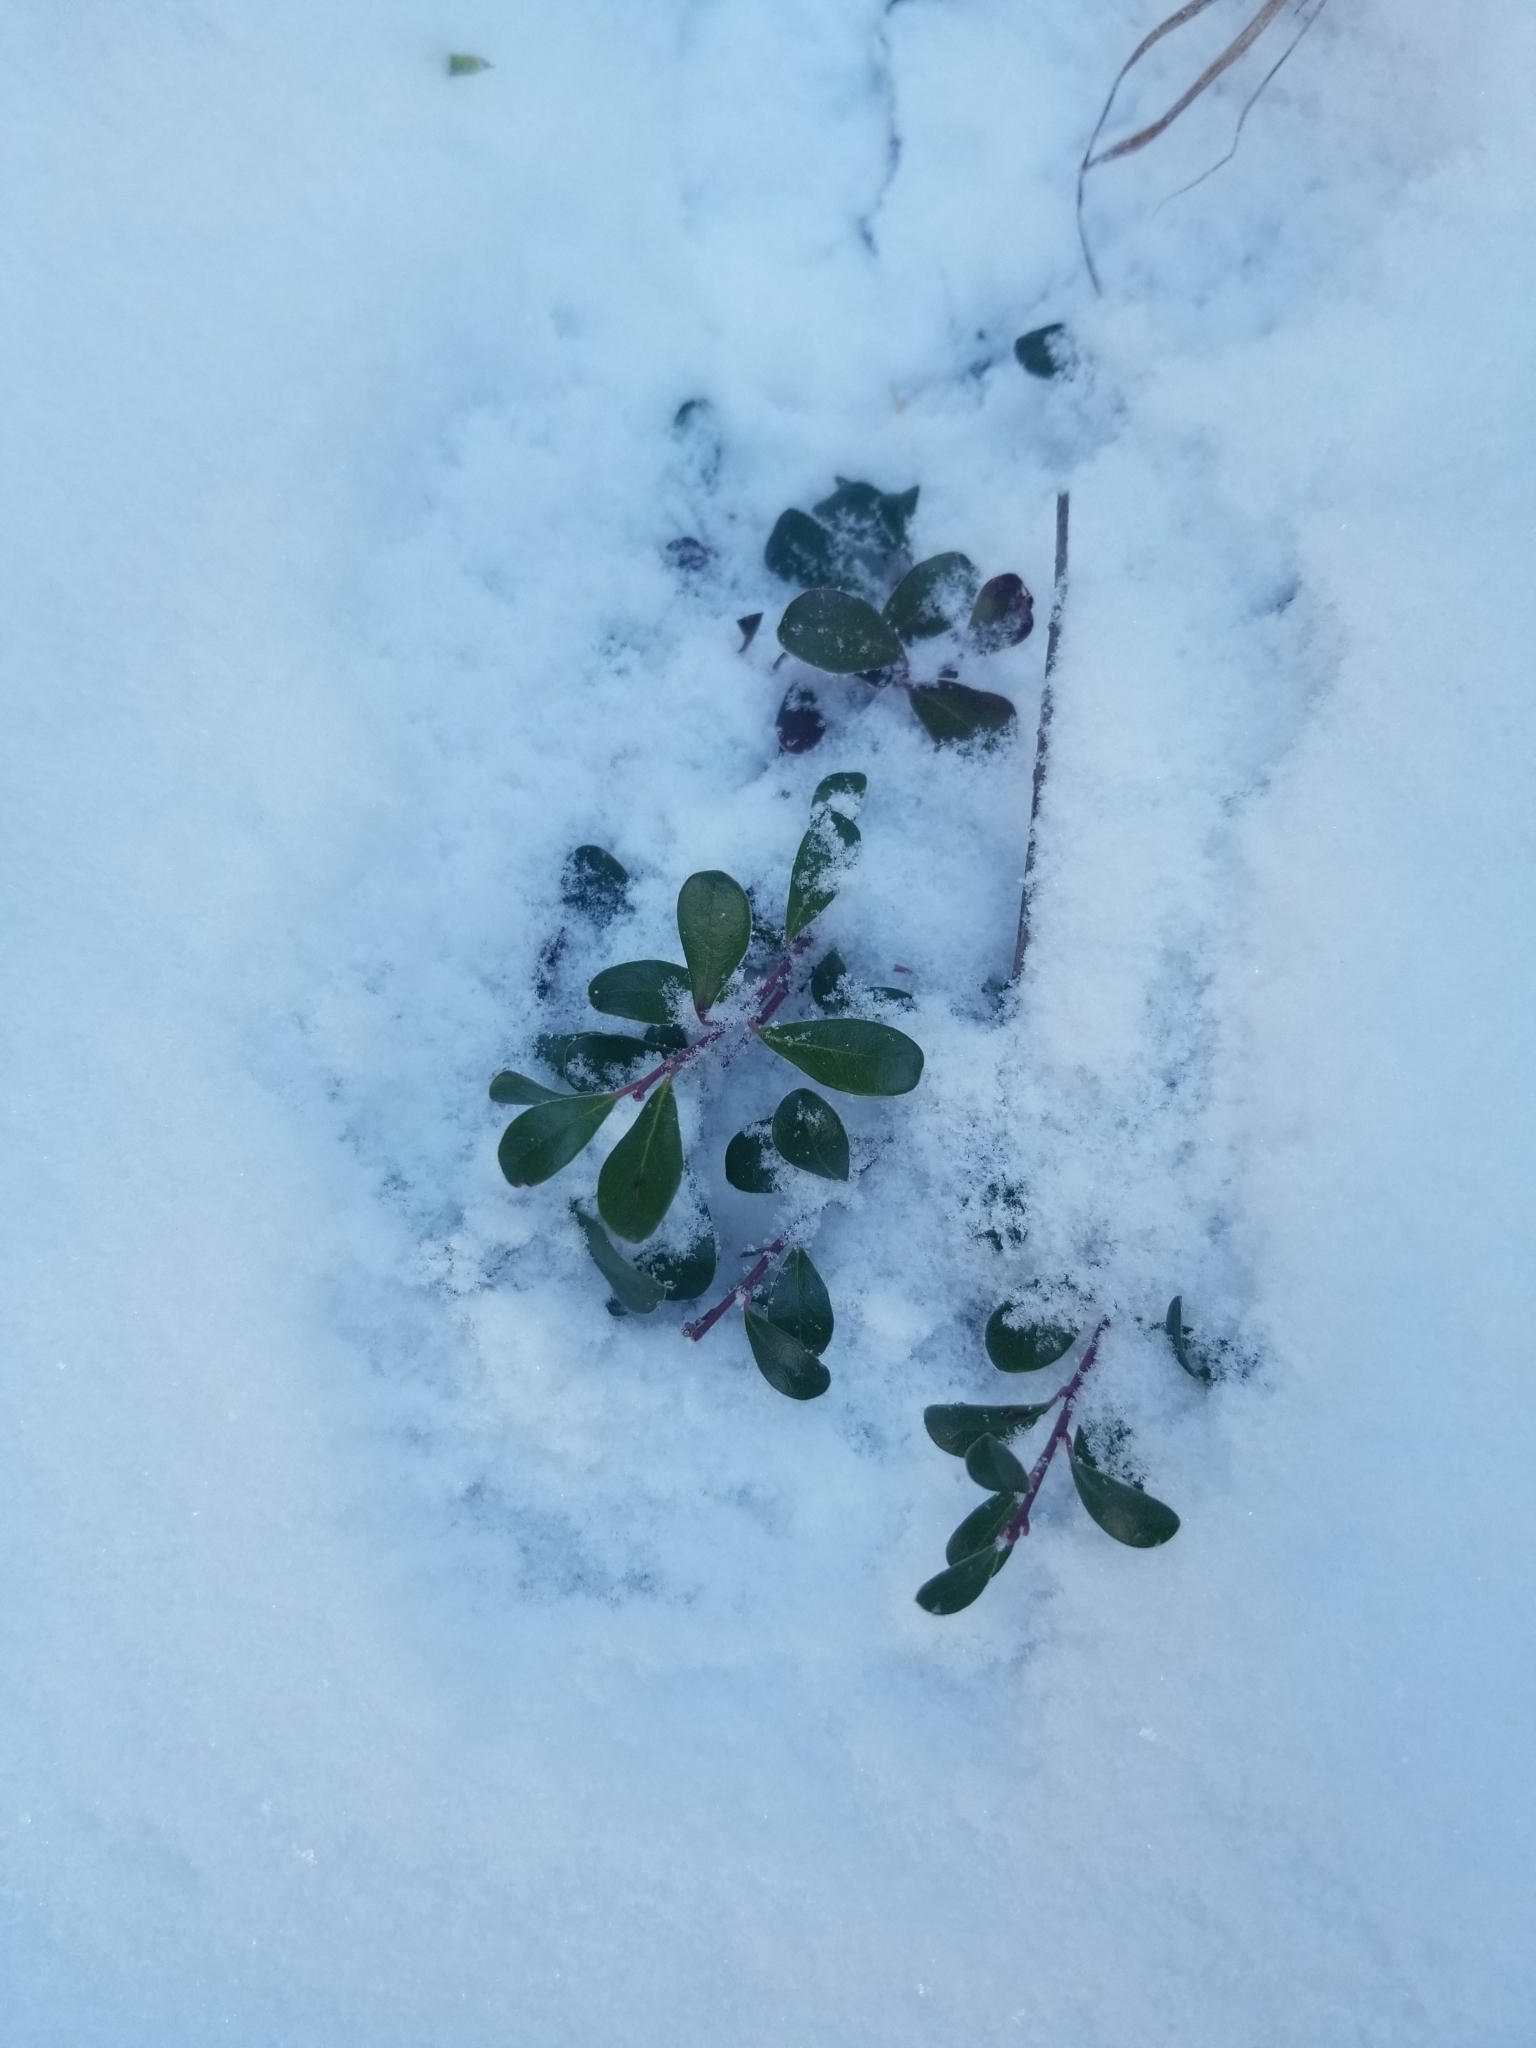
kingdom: Plantae
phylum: Tracheophyta
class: Magnoliopsida
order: Ericales
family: Ericaceae
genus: Arctostaphylos
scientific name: Arctostaphylos uva-ursi
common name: Bearberry
